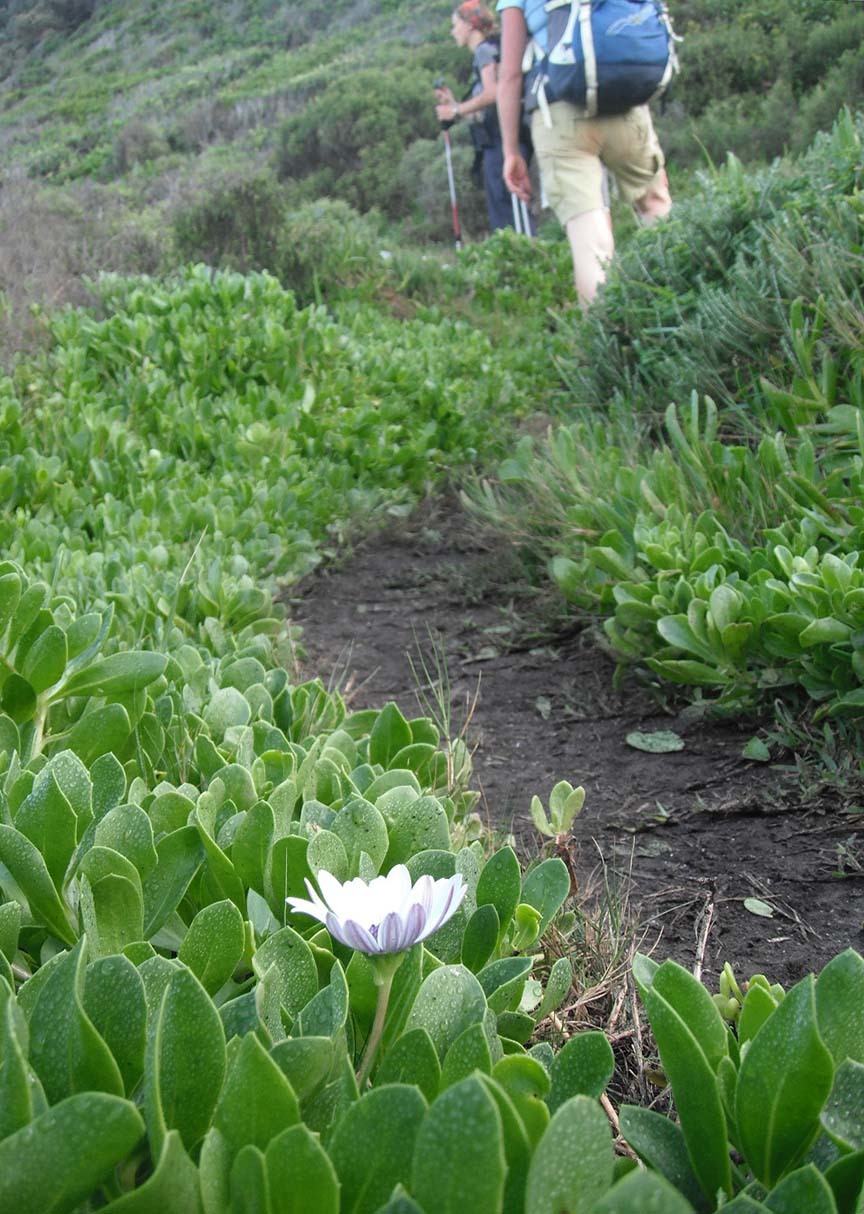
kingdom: Plantae
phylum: Tracheophyta
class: Magnoliopsida
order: Asterales
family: Asteraceae
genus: Dimorphotheca
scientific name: Dimorphotheca fruticosa
